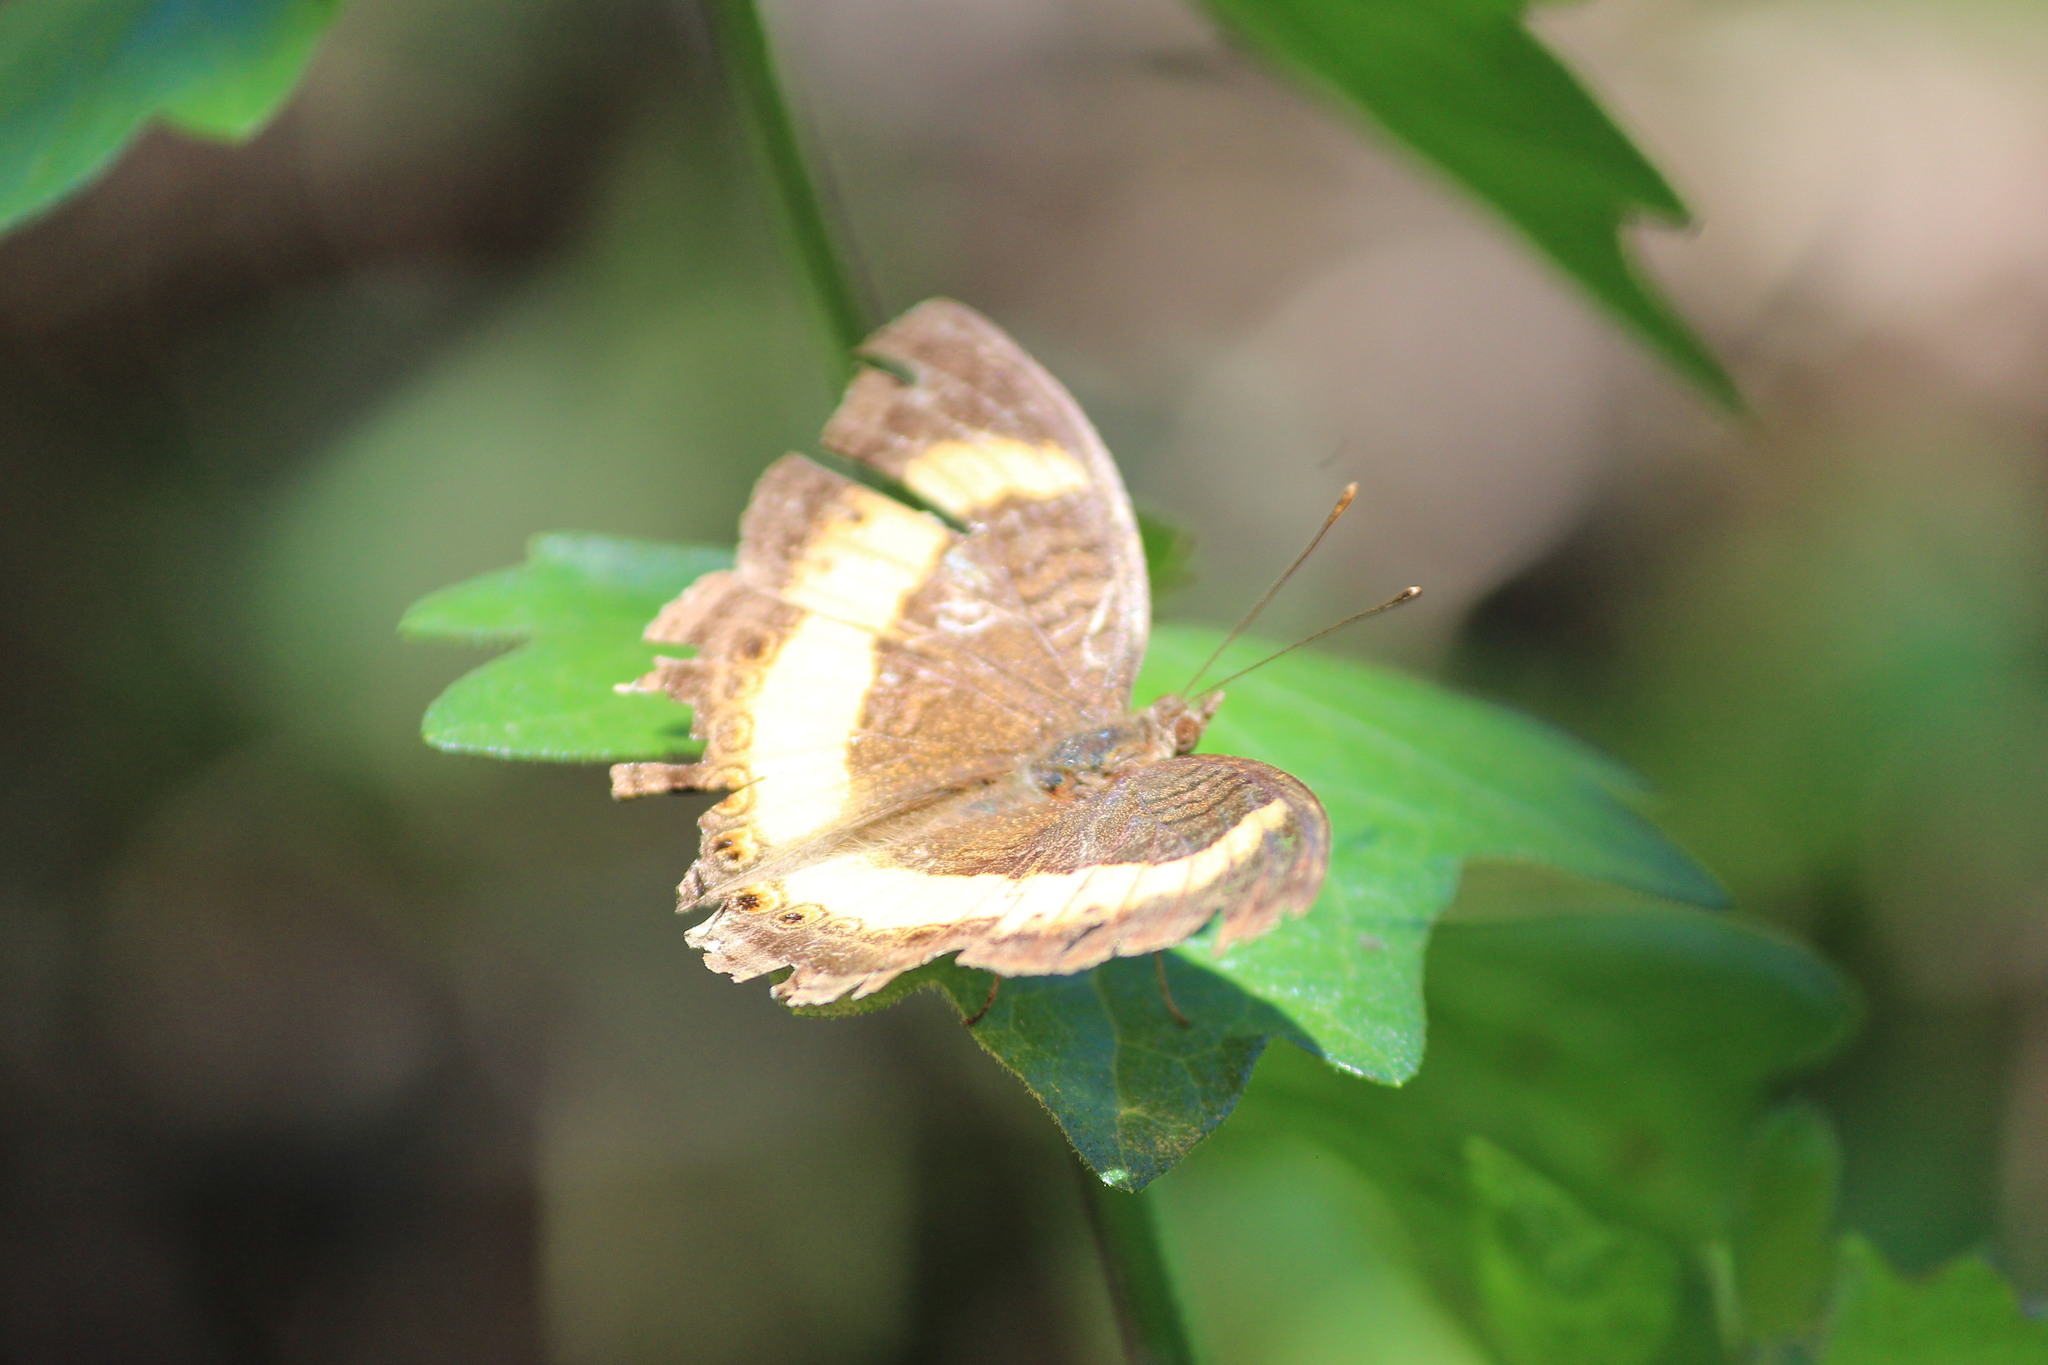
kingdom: Animalia
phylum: Arthropoda
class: Insecta
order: Lepidoptera
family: Nymphalidae
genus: Junonia
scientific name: Junonia terea
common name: Soldier pansy
